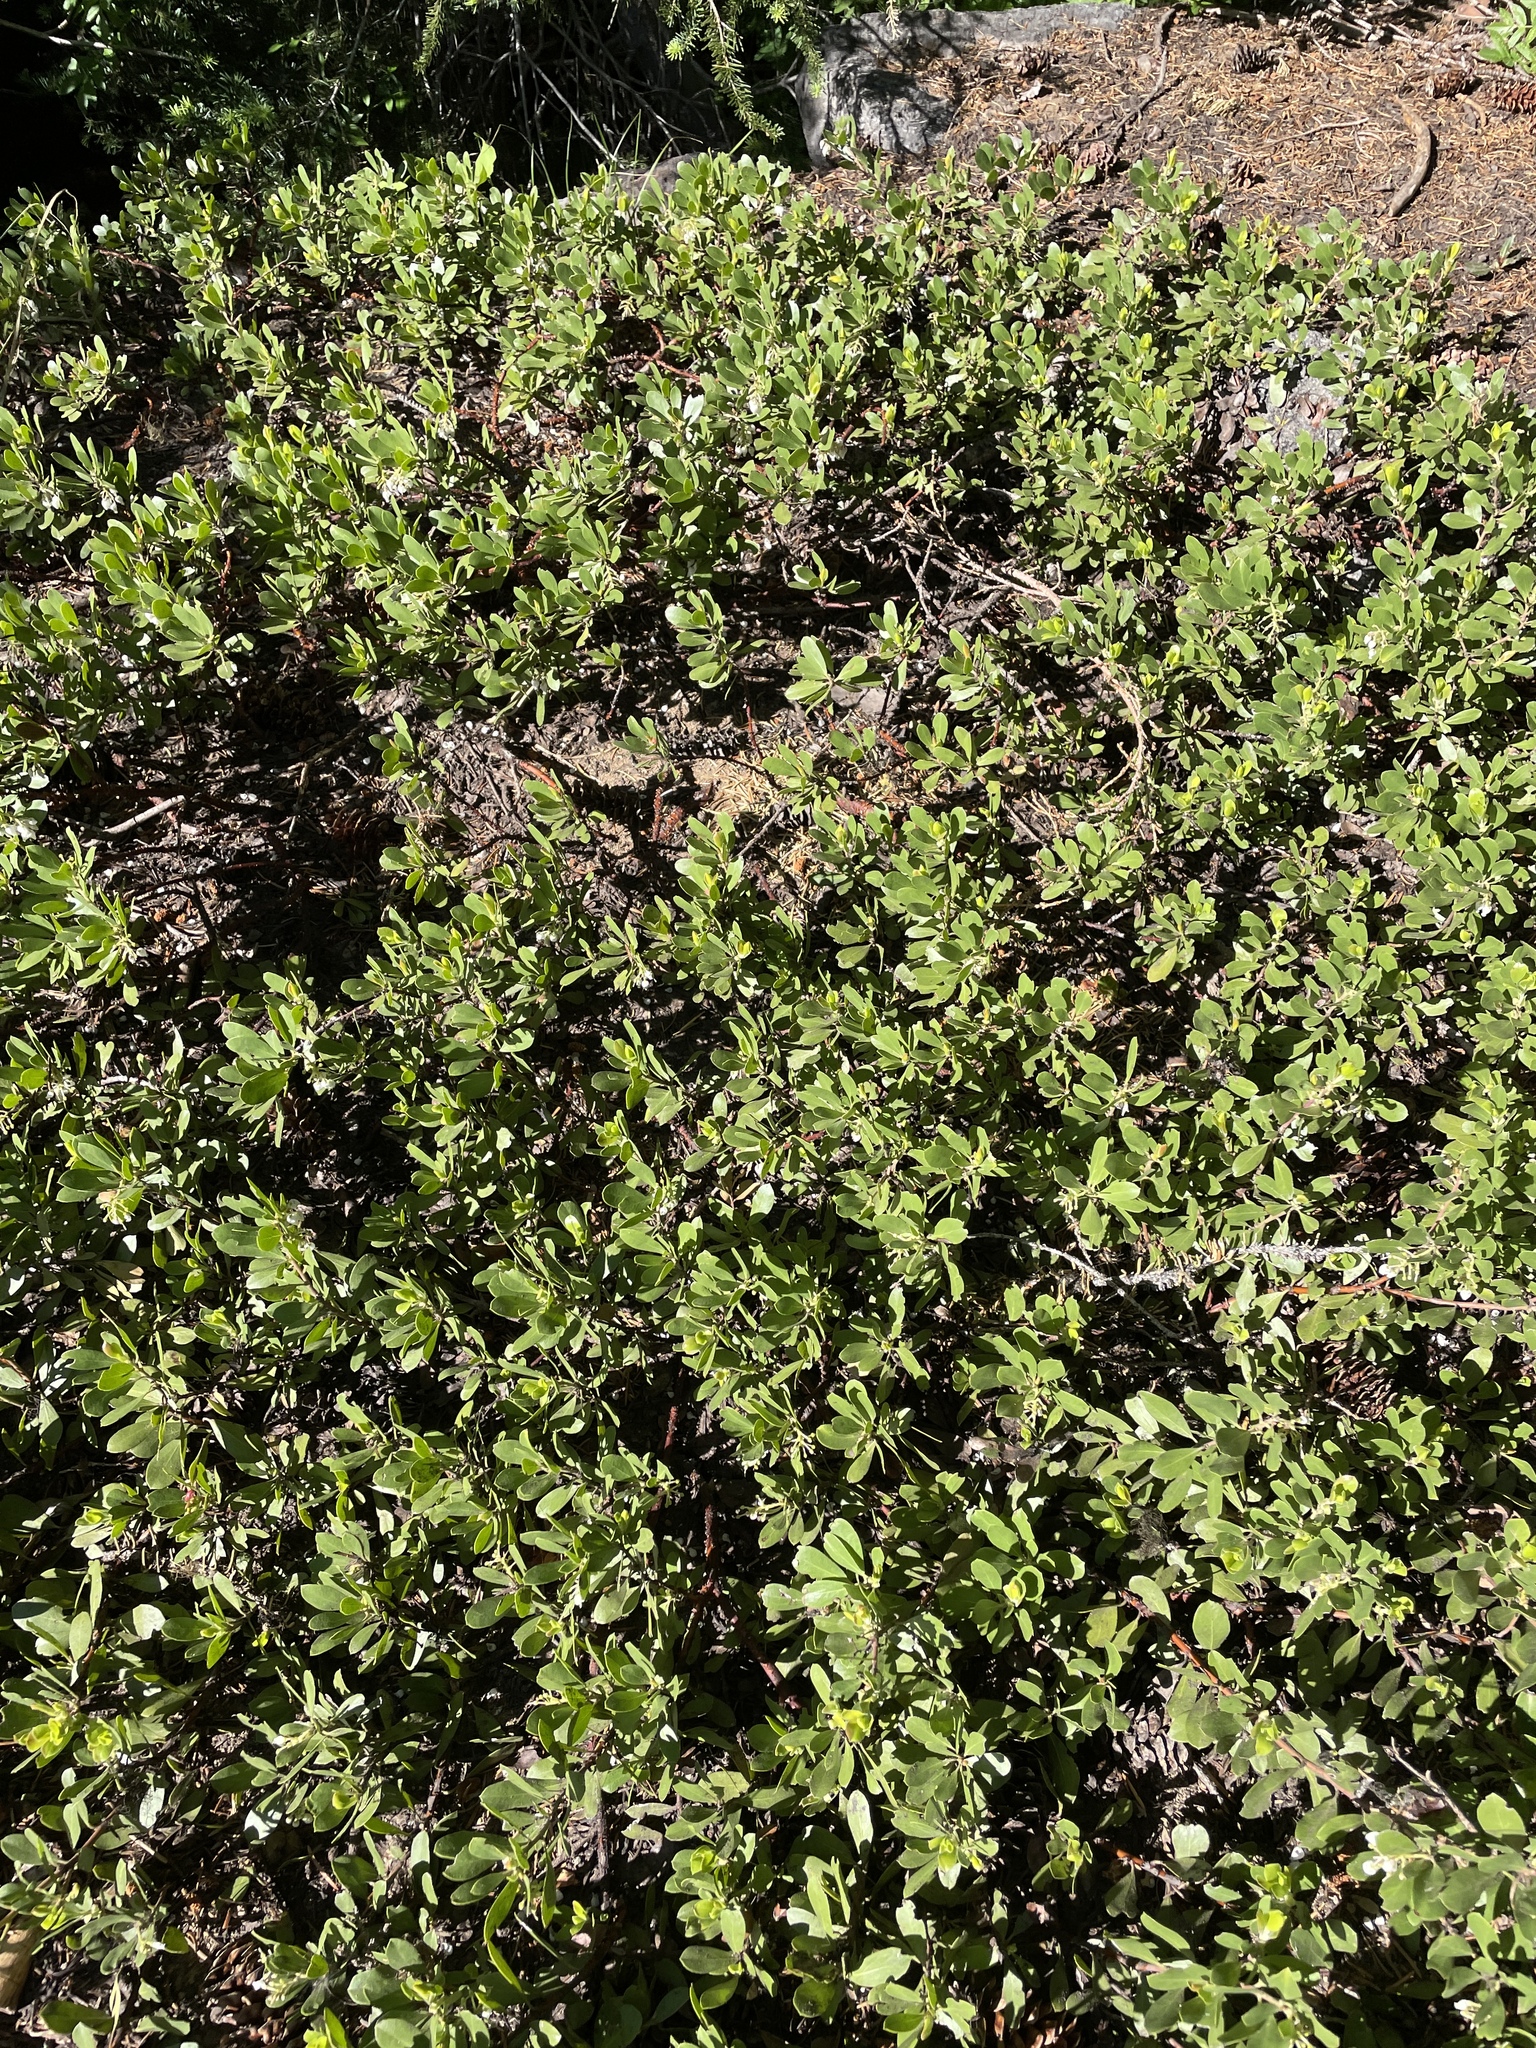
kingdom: Plantae
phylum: Tracheophyta
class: Magnoliopsida
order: Ericales
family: Ericaceae
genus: Arctostaphylos
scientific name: Arctostaphylos nevadensis
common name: Pinemat manzanita
